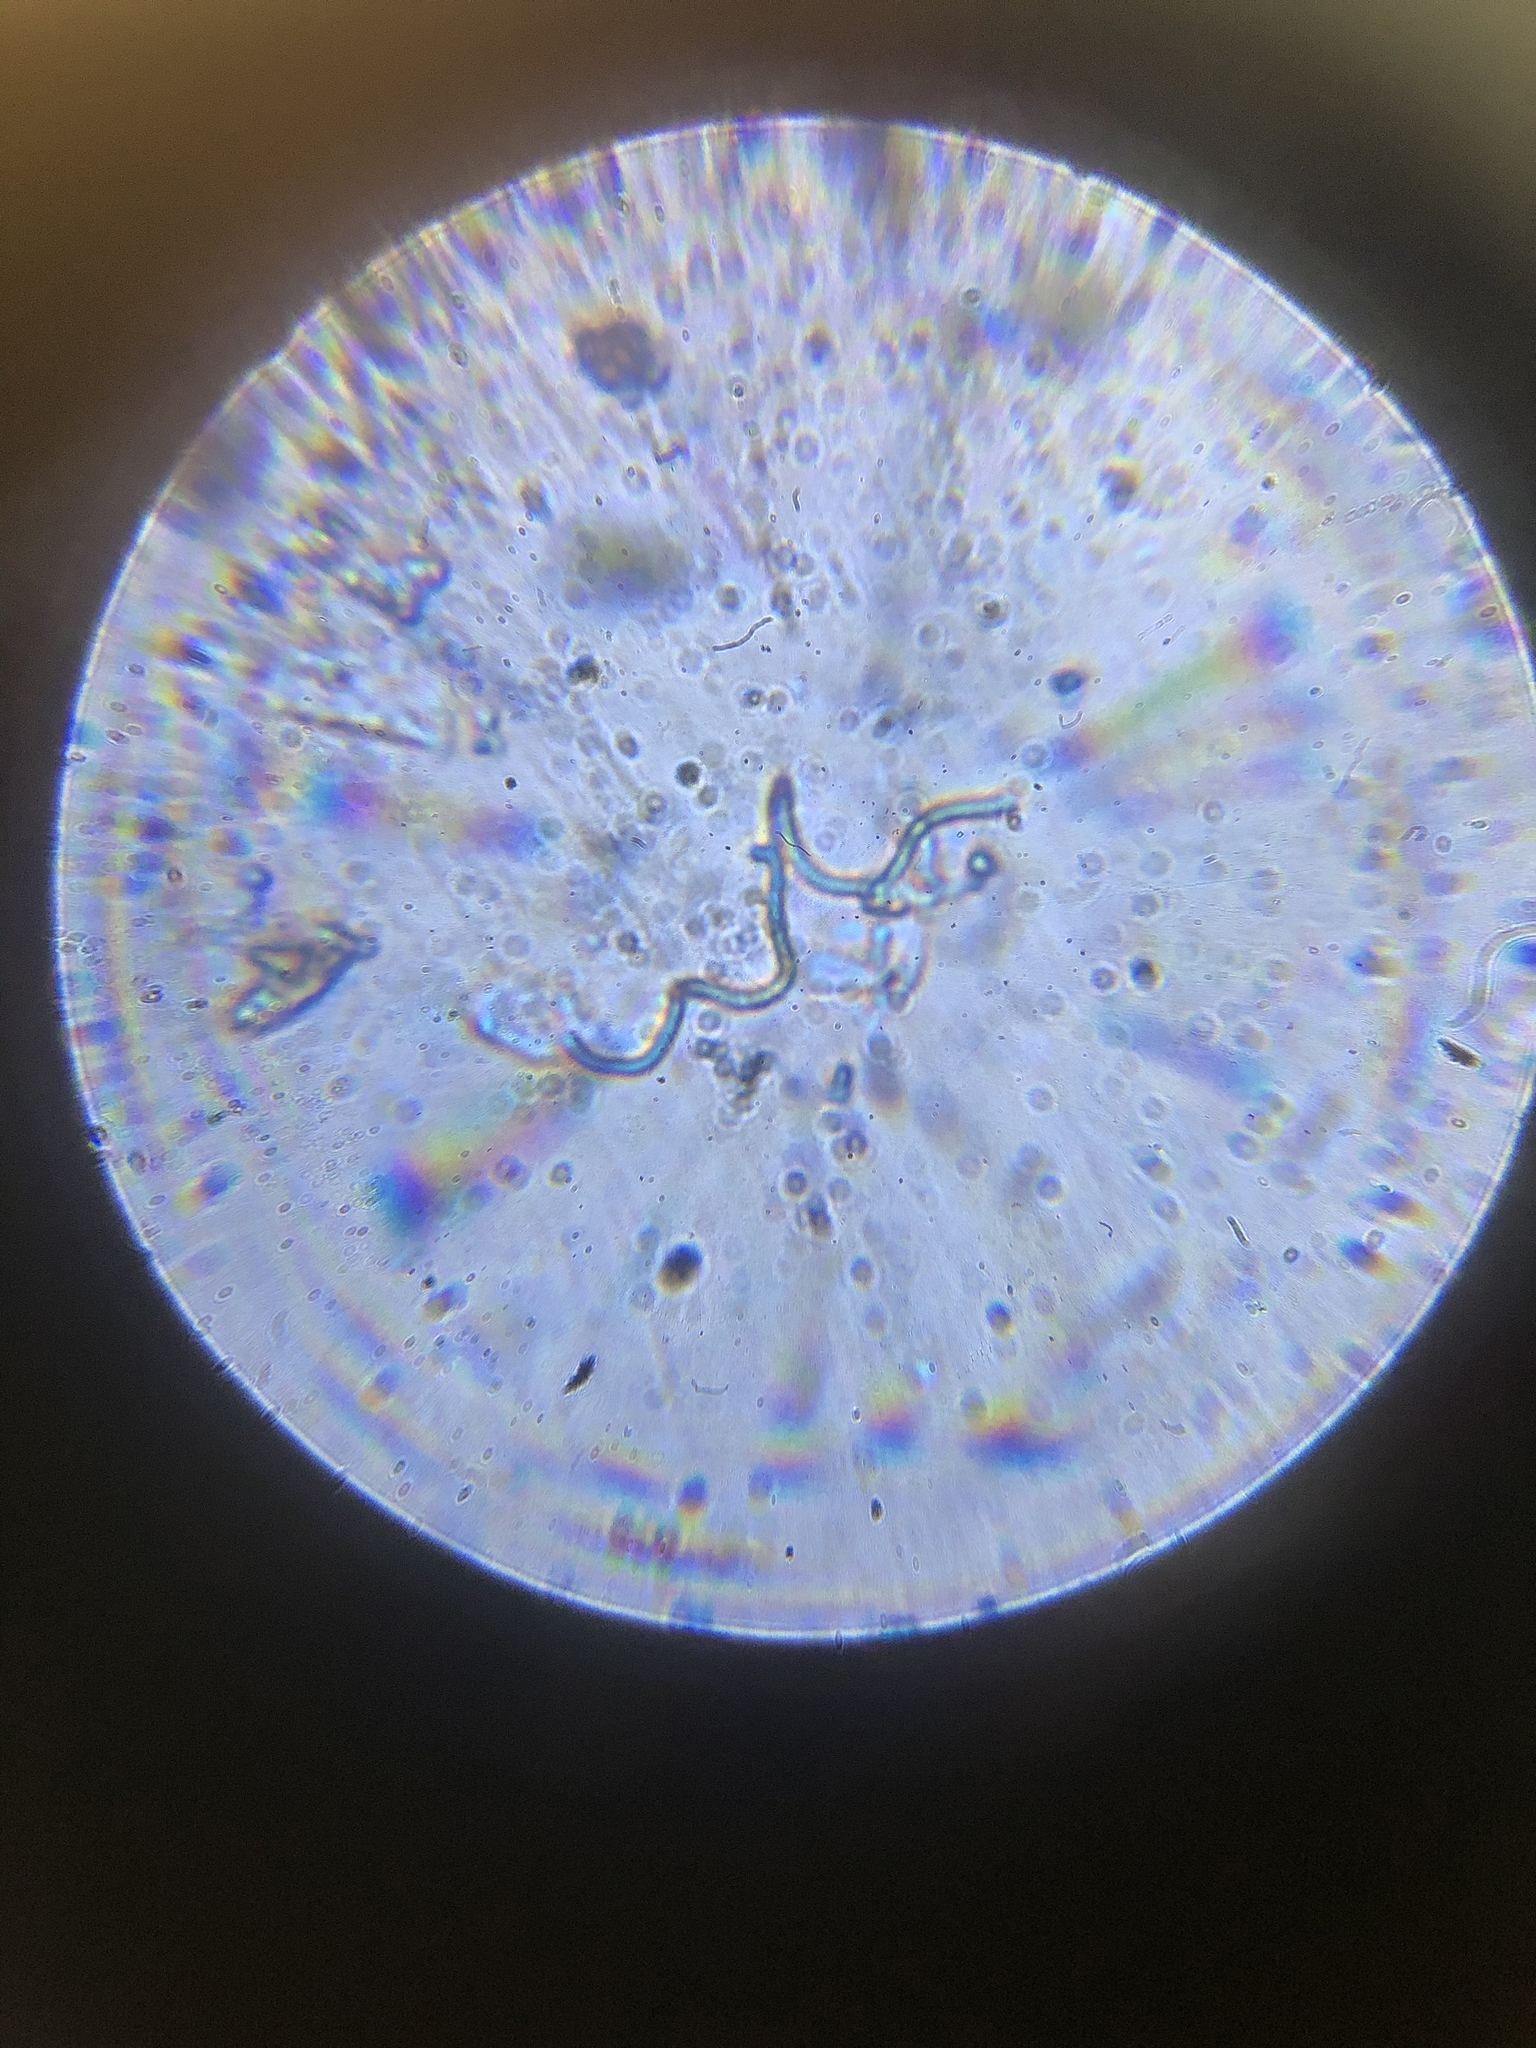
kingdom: Fungi
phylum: Ascomycota
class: Pezizomycetes
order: Pezizales
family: Sarcoscyphaceae
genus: Sarcoscypha
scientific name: Sarcoscypha austriaca
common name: Scarlet elfcup
